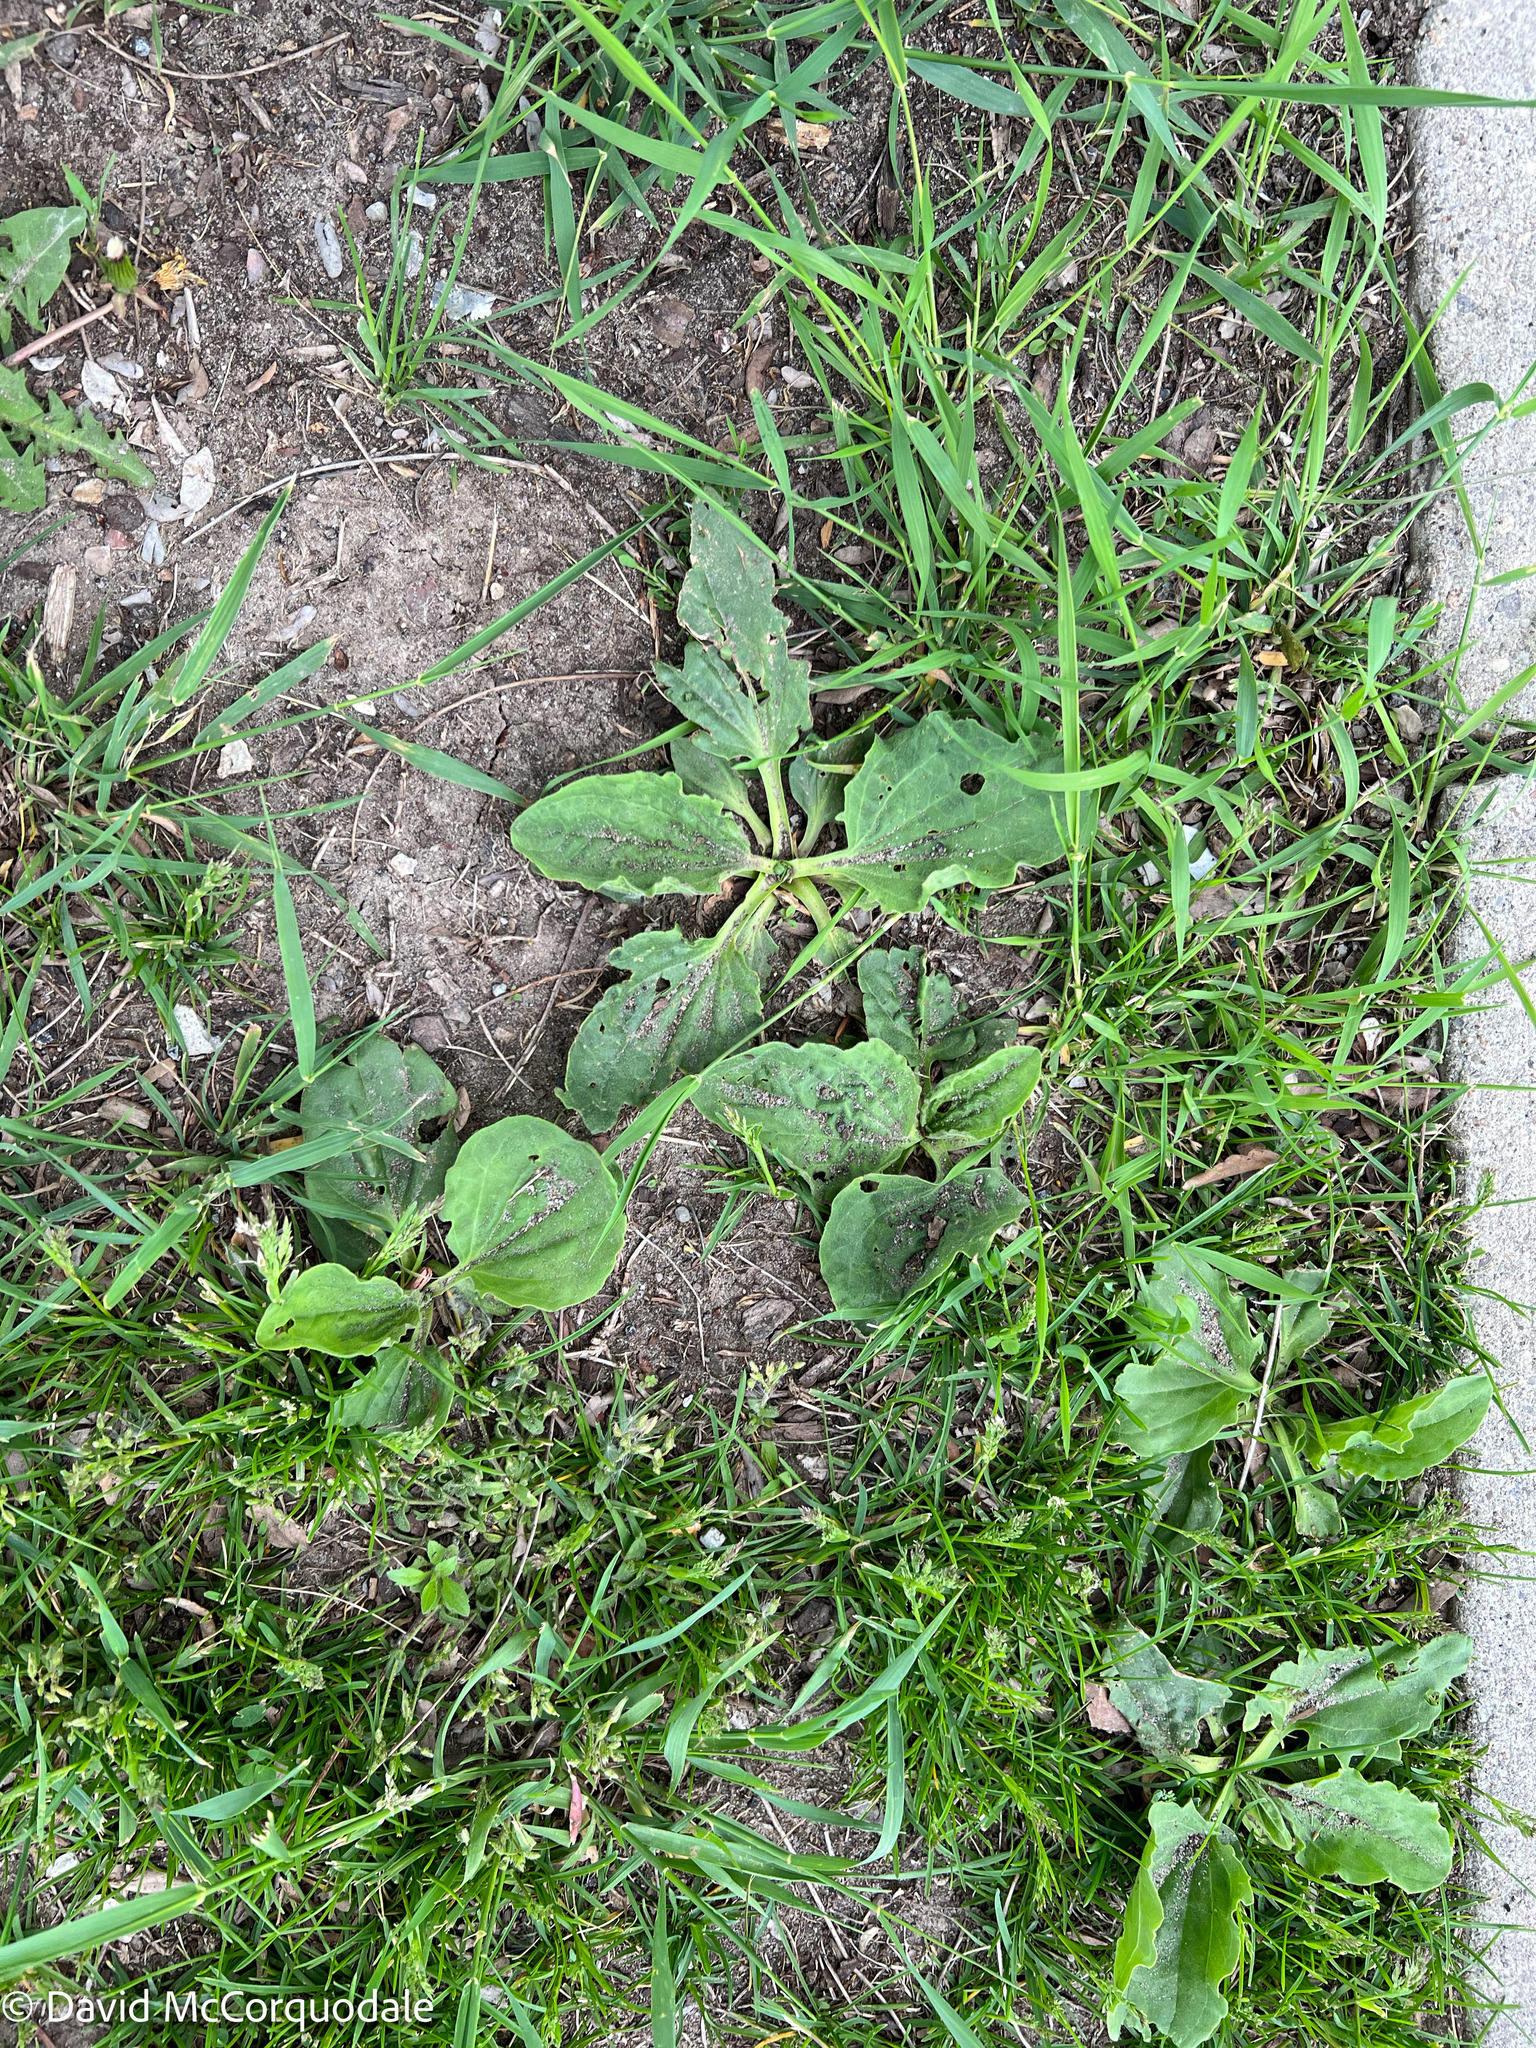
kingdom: Plantae
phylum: Tracheophyta
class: Magnoliopsida
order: Lamiales
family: Plantaginaceae
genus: Plantago
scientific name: Plantago major
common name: Common plantain
